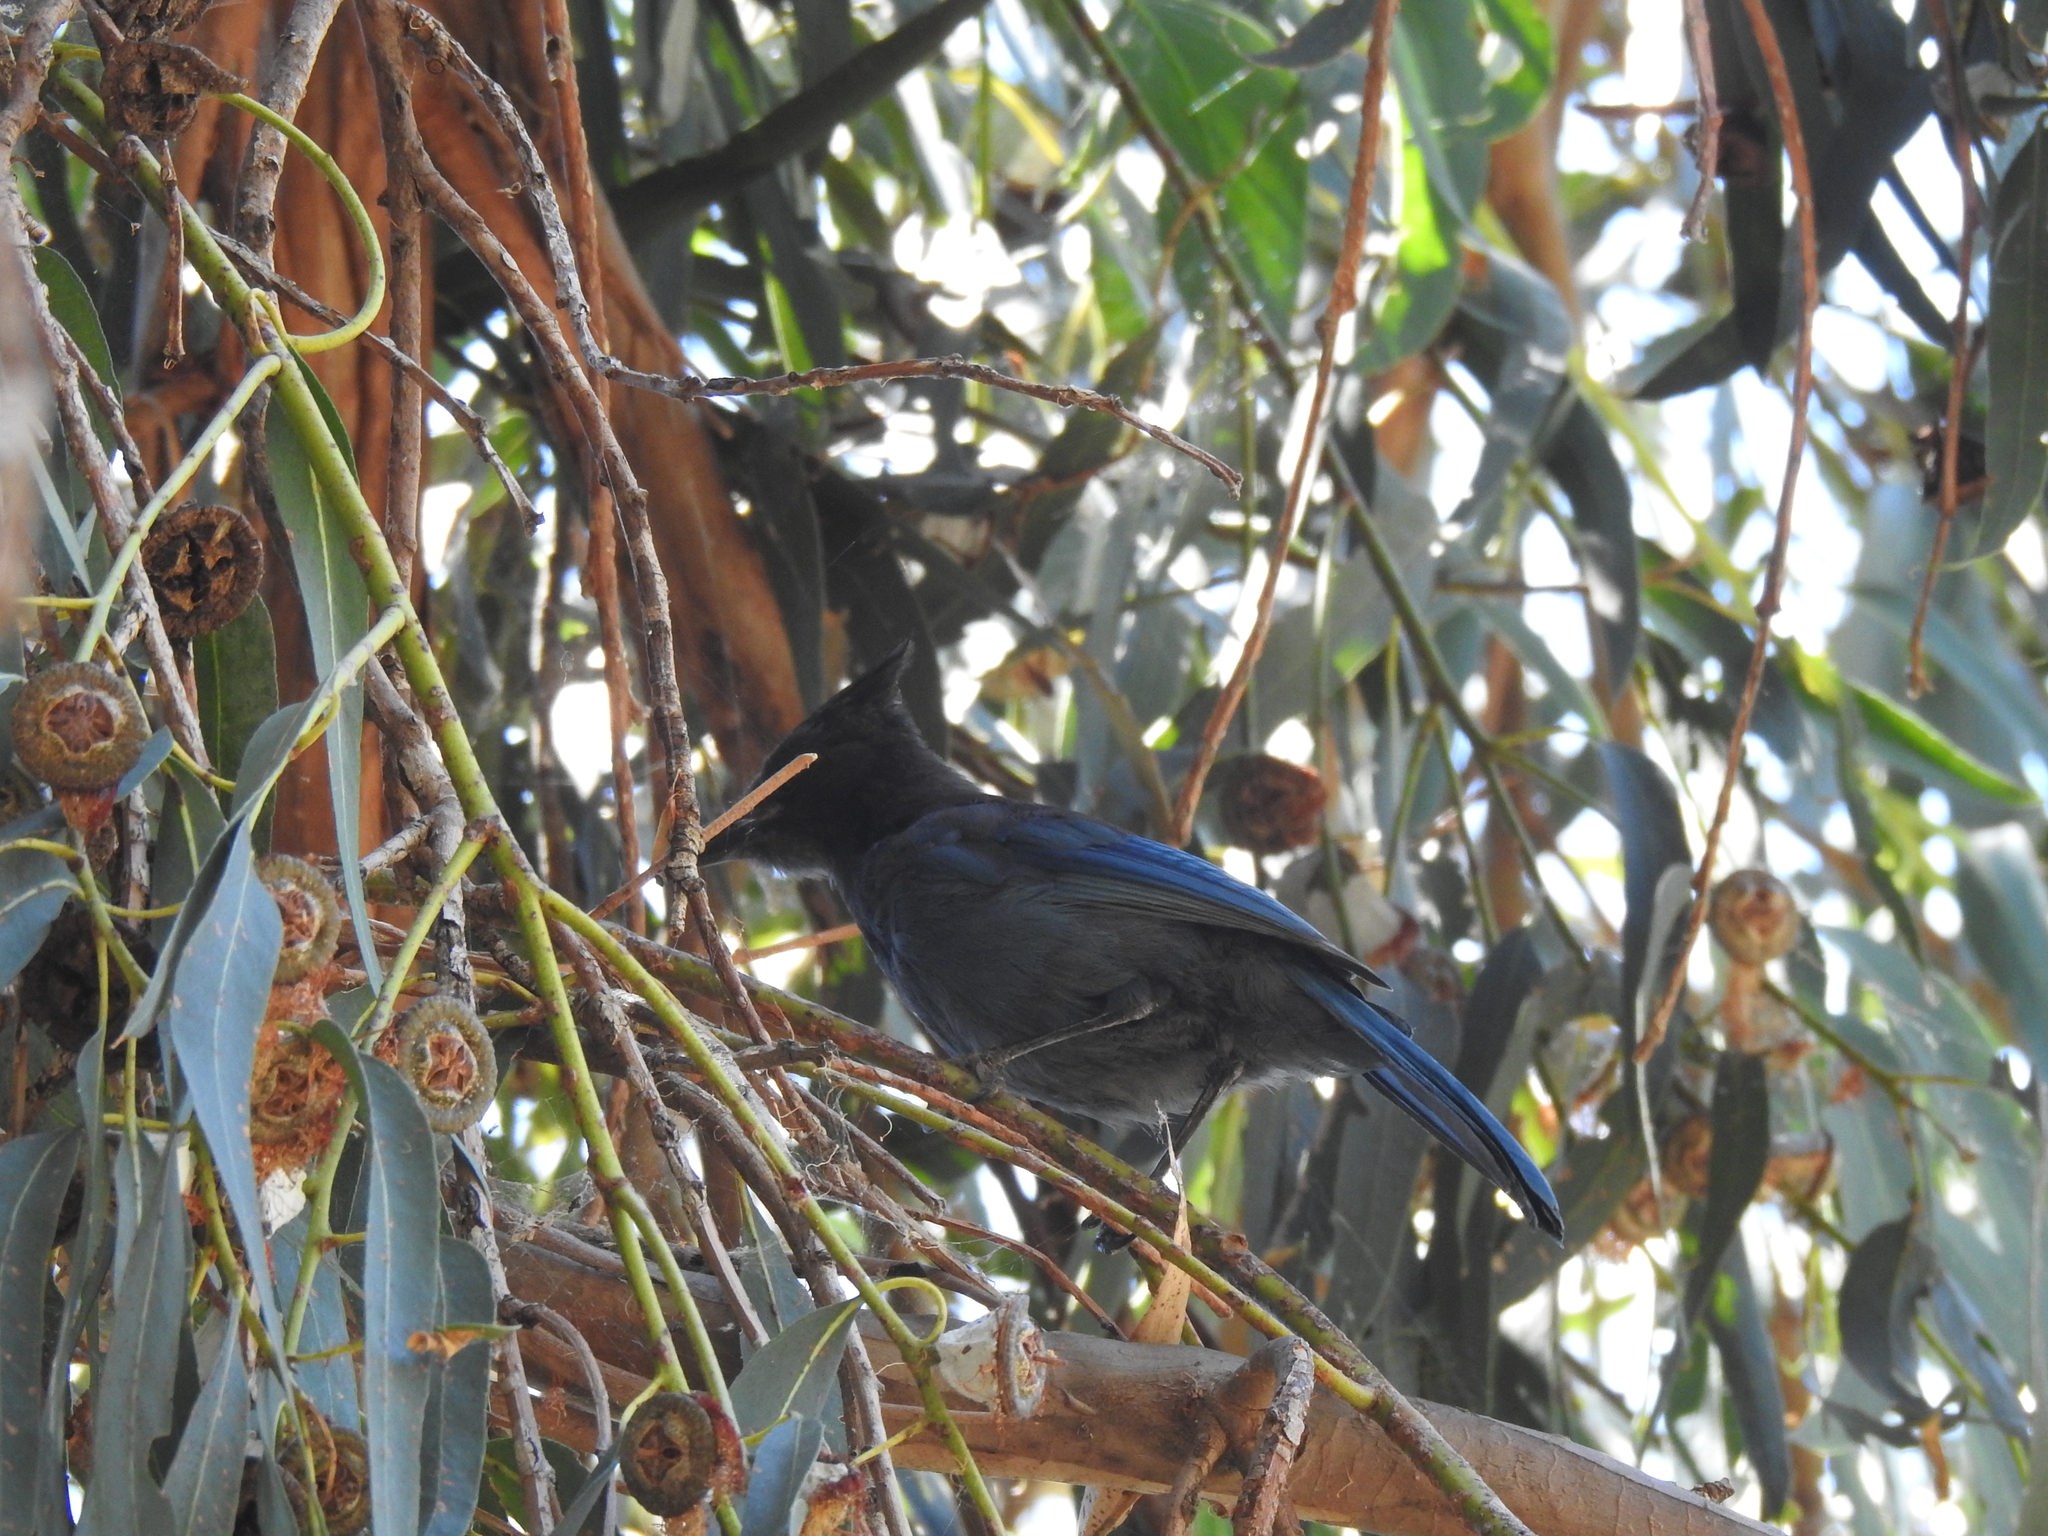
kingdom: Animalia
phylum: Chordata
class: Aves
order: Passeriformes
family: Corvidae
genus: Cyanocitta
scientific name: Cyanocitta stelleri
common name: Steller's jay
